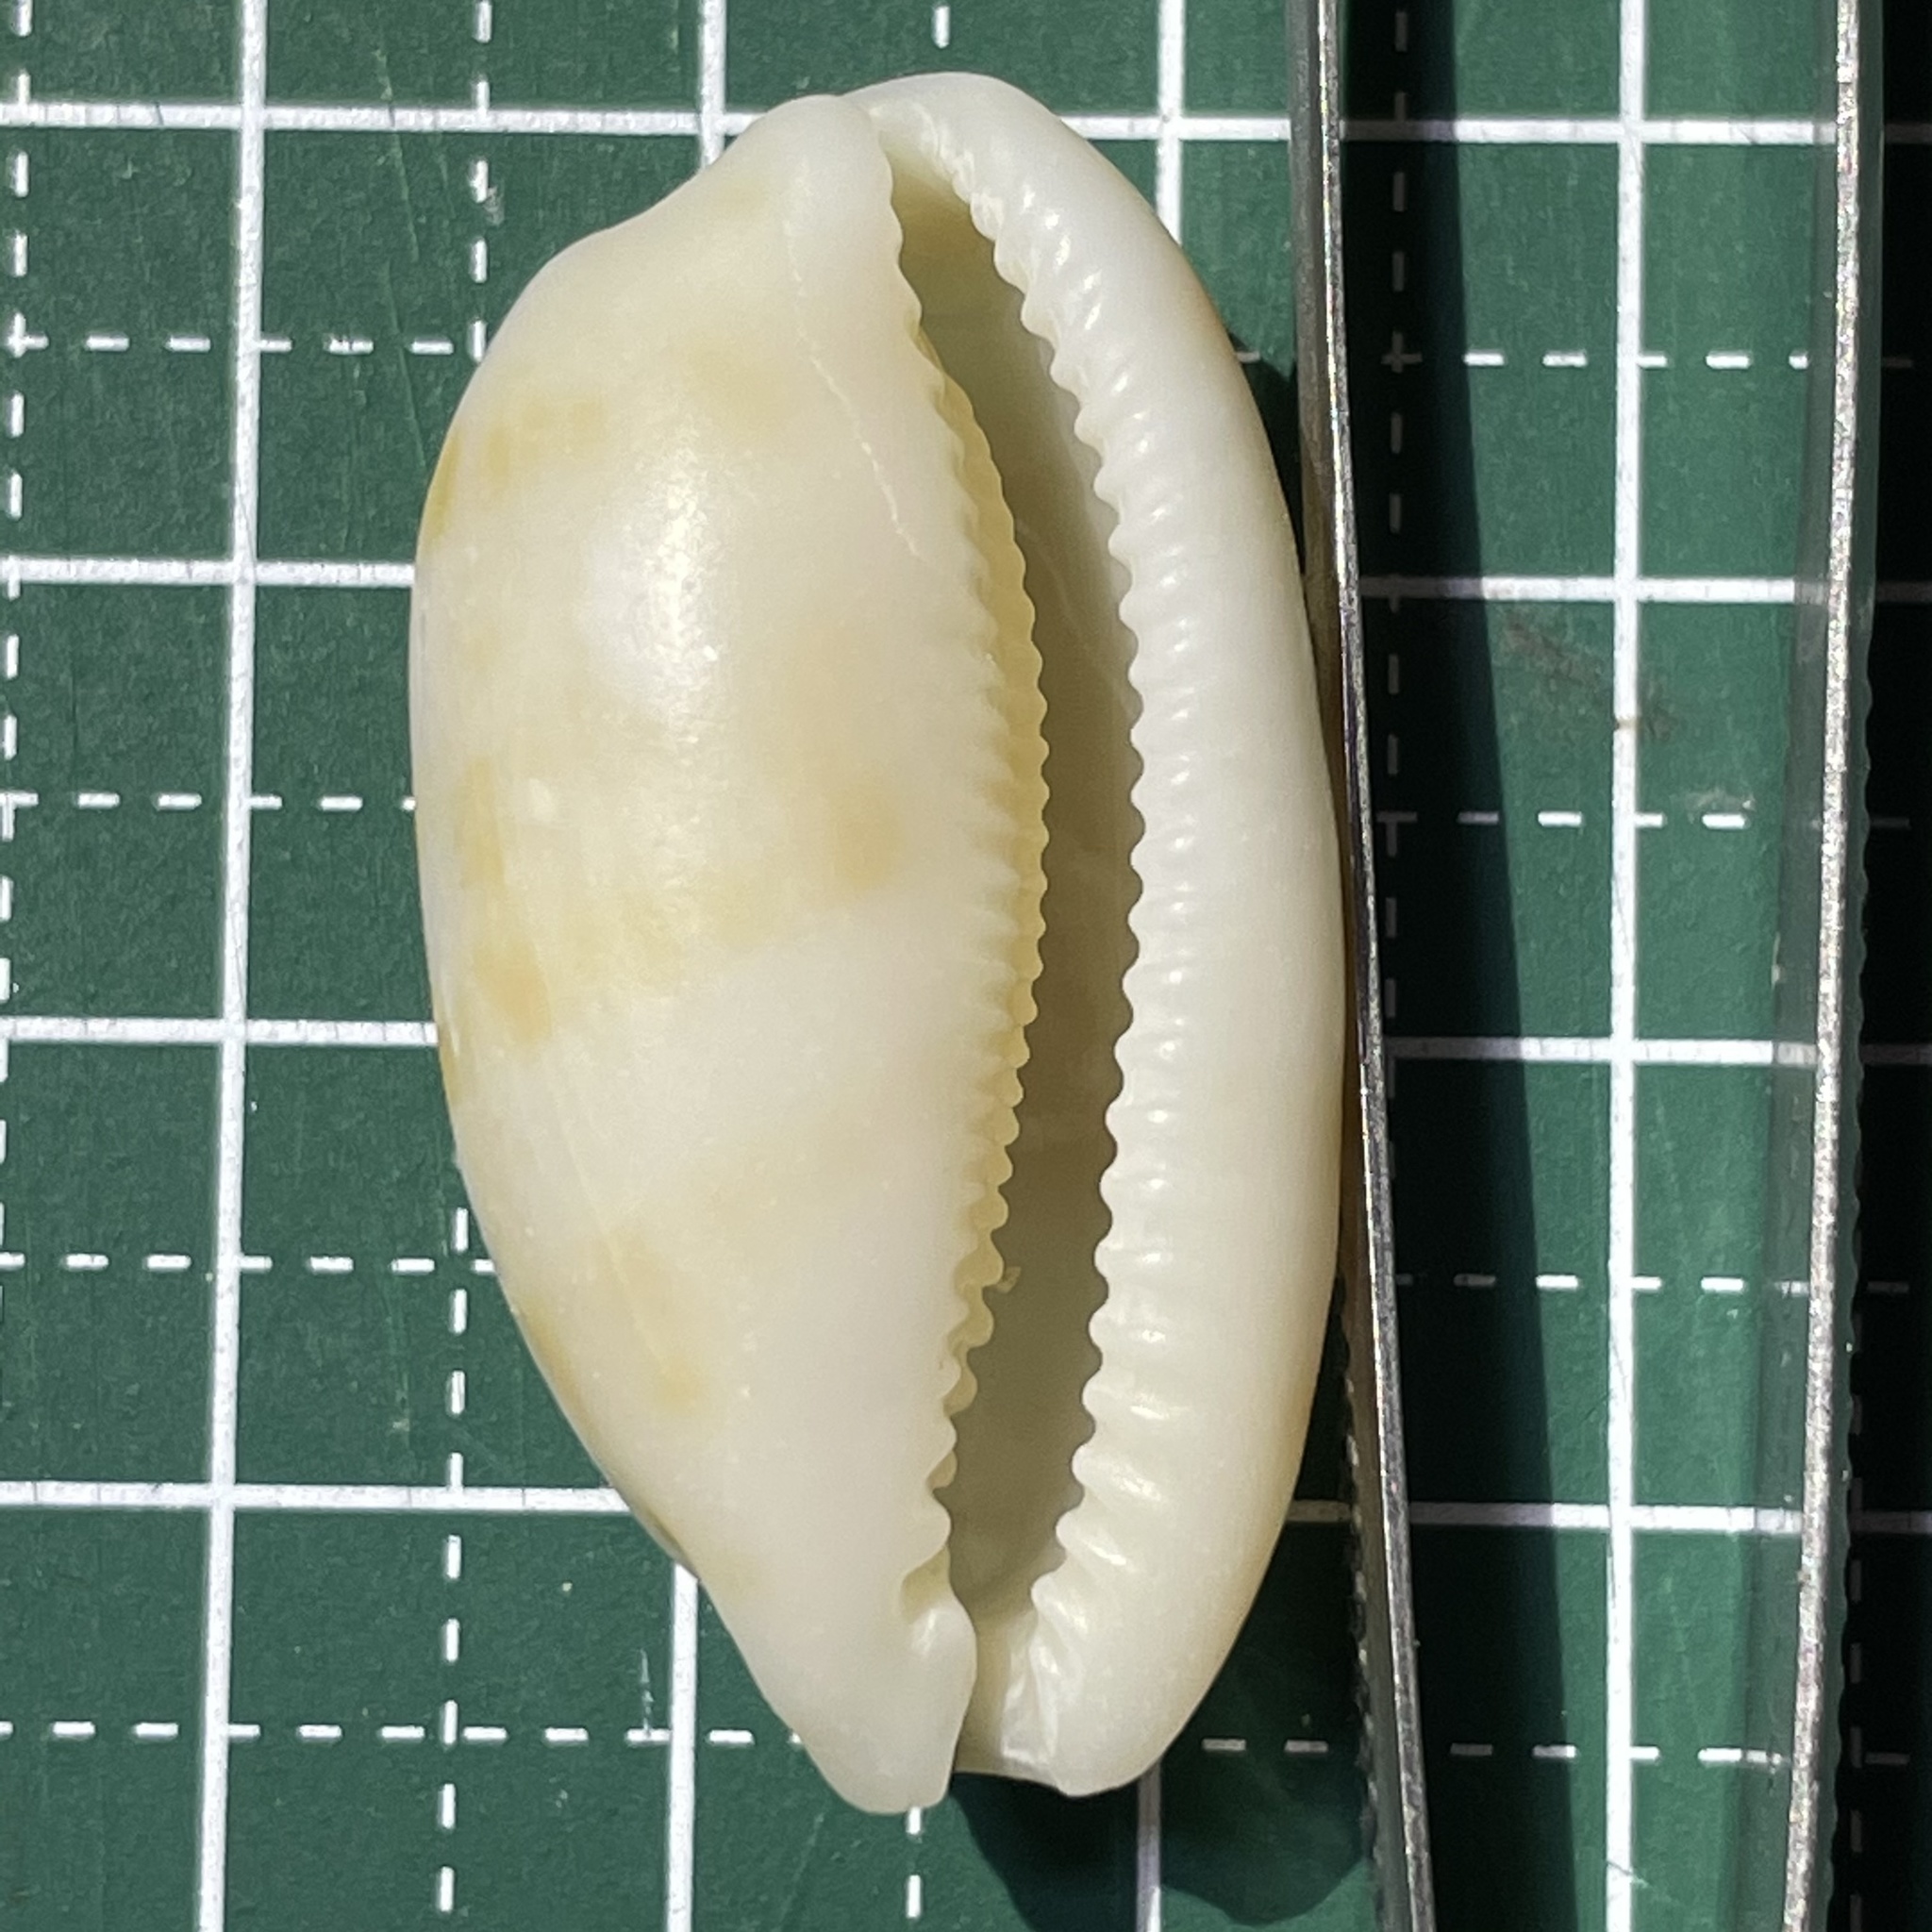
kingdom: Animalia
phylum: Mollusca
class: Gastropoda
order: Littorinimorpha
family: Cypraeidae
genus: Talostolida
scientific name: Talostolida teres
